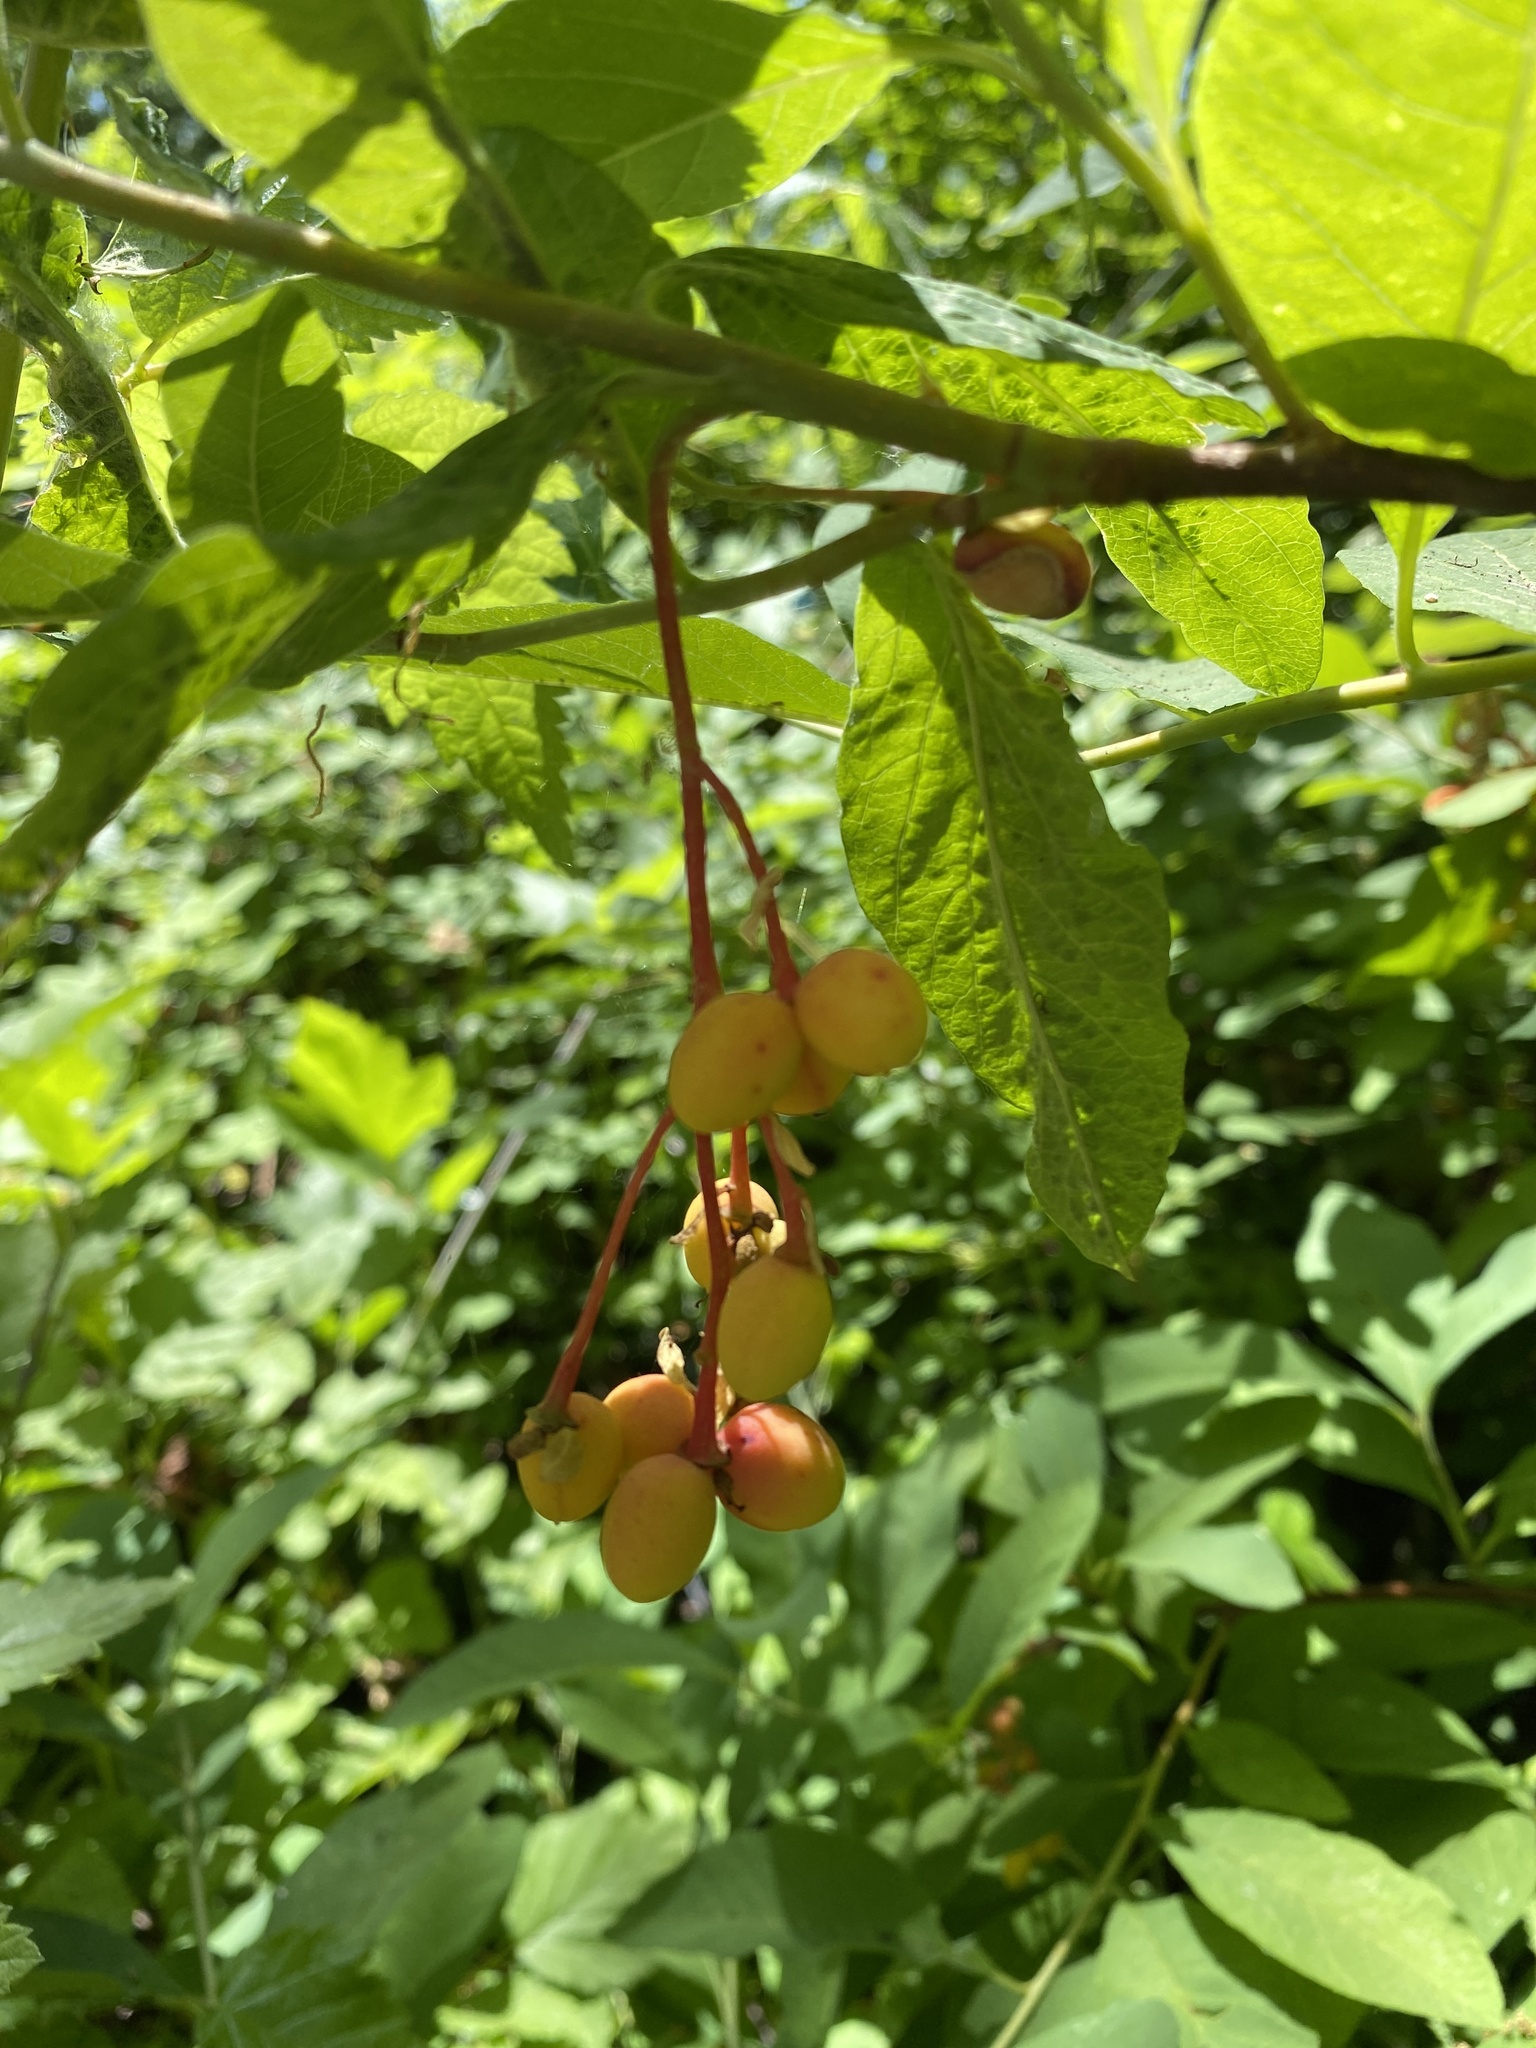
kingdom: Plantae
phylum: Tracheophyta
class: Magnoliopsida
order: Rosales
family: Rosaceae
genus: Oemleria
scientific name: Oemleria cerasiformis
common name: Osoberry
